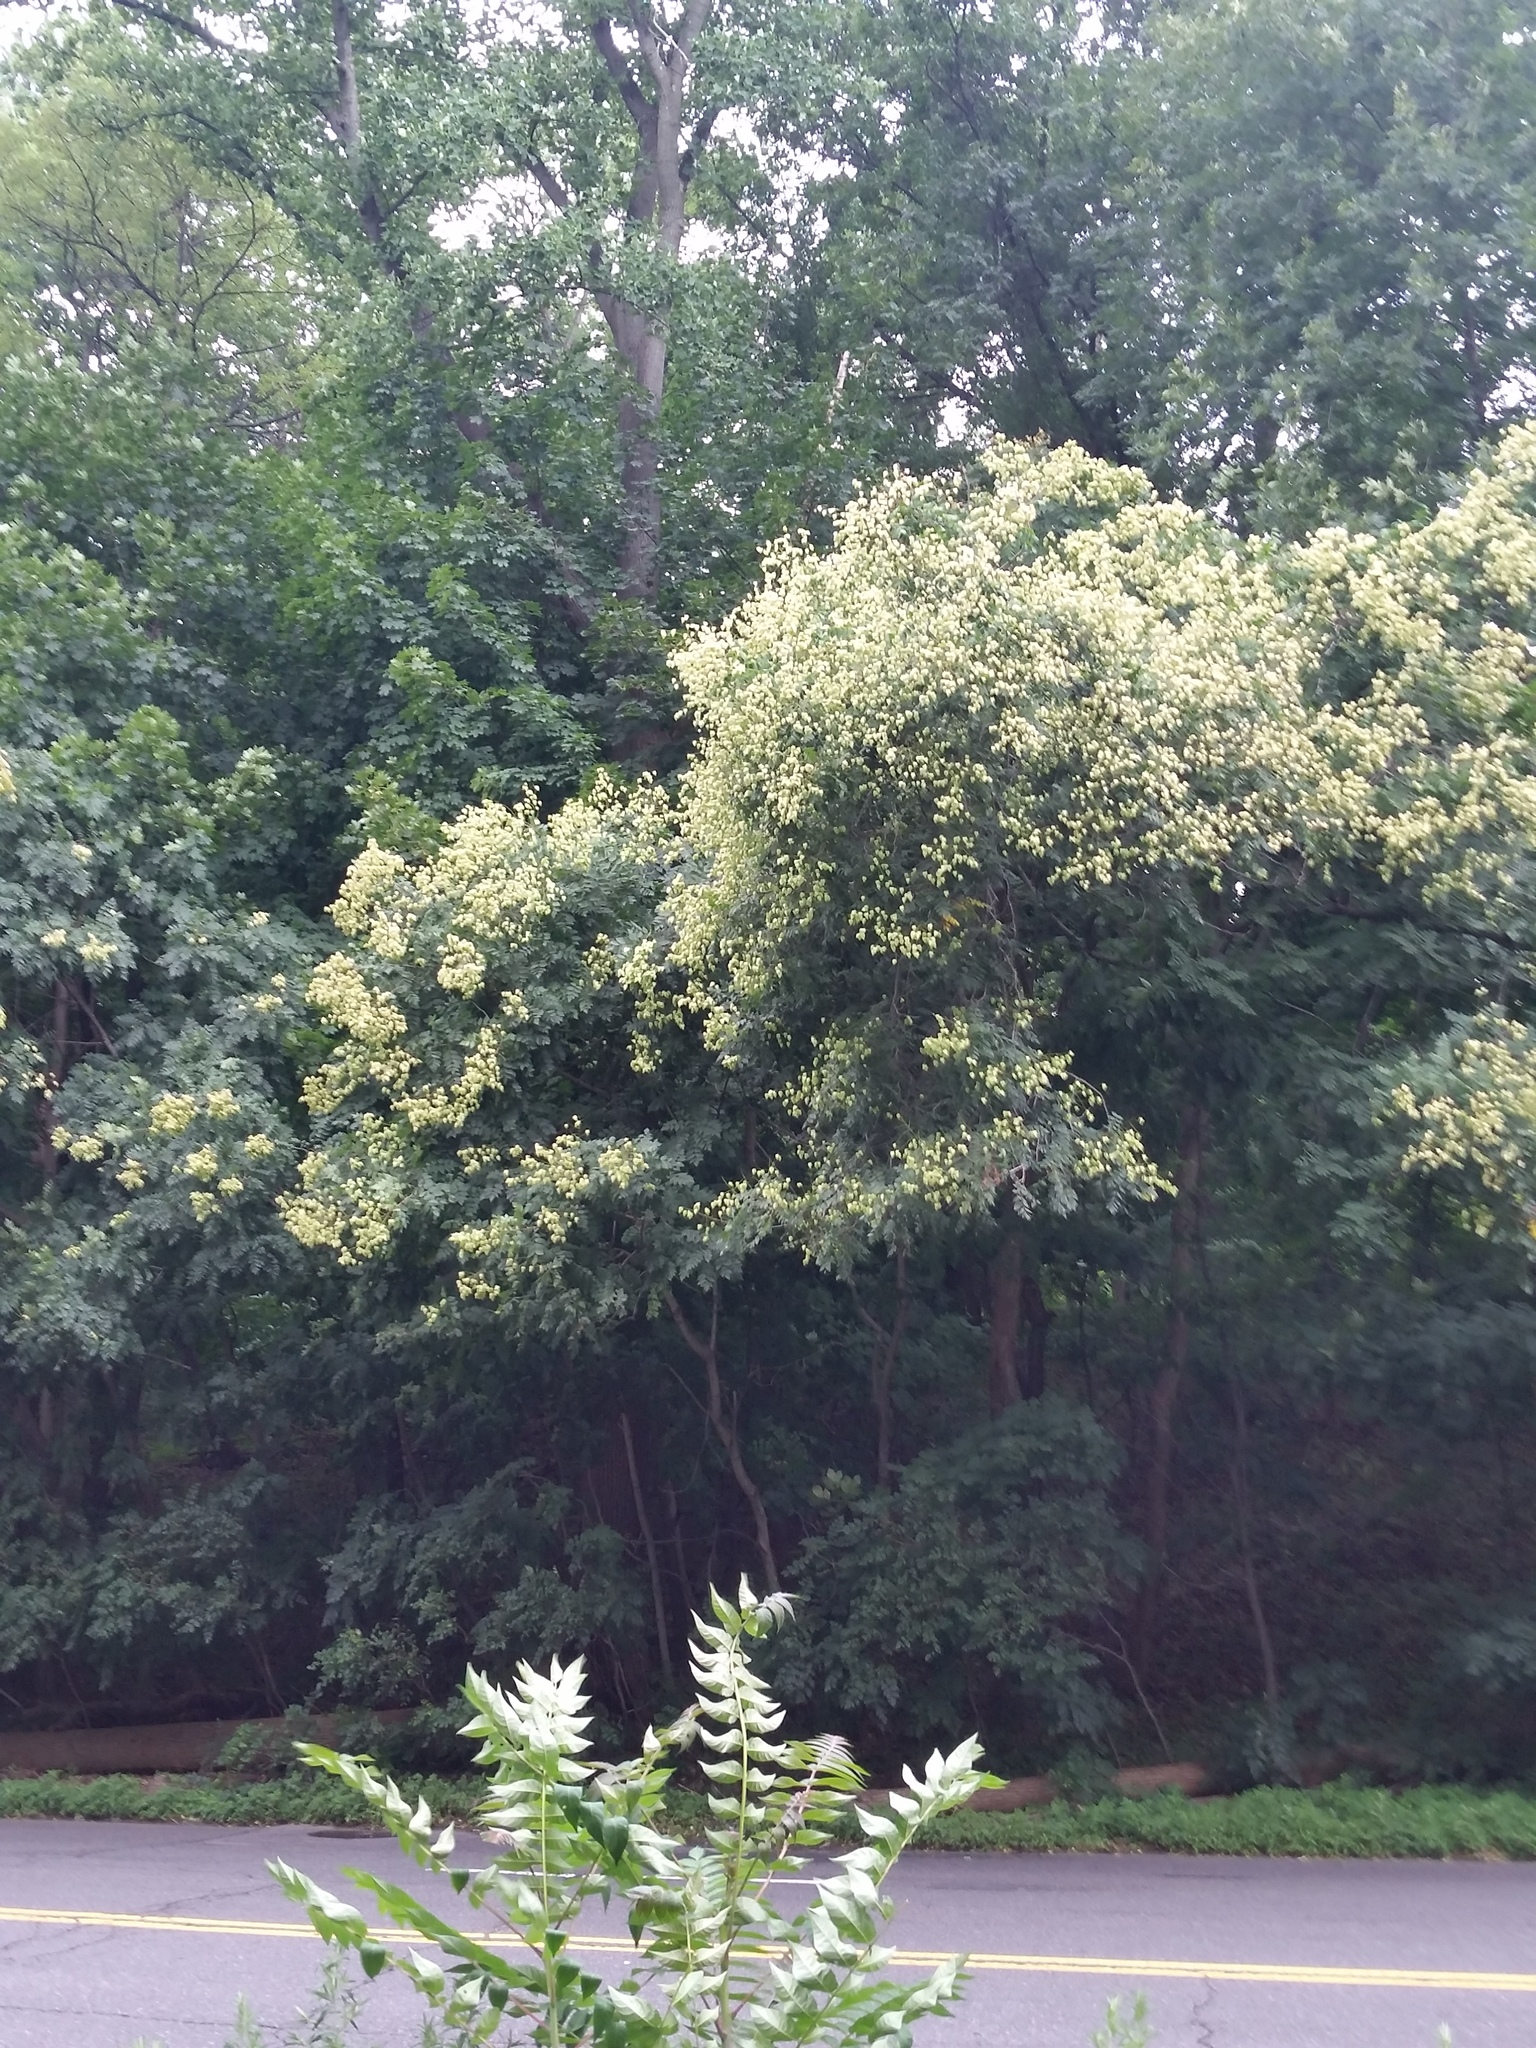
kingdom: Plantae
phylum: Tracheophyta
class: Magnoliopsida
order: Sapindales
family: Sapindaceae
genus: Koelreuteria
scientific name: Koelreuteria paniculata
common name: Pride-of-india
